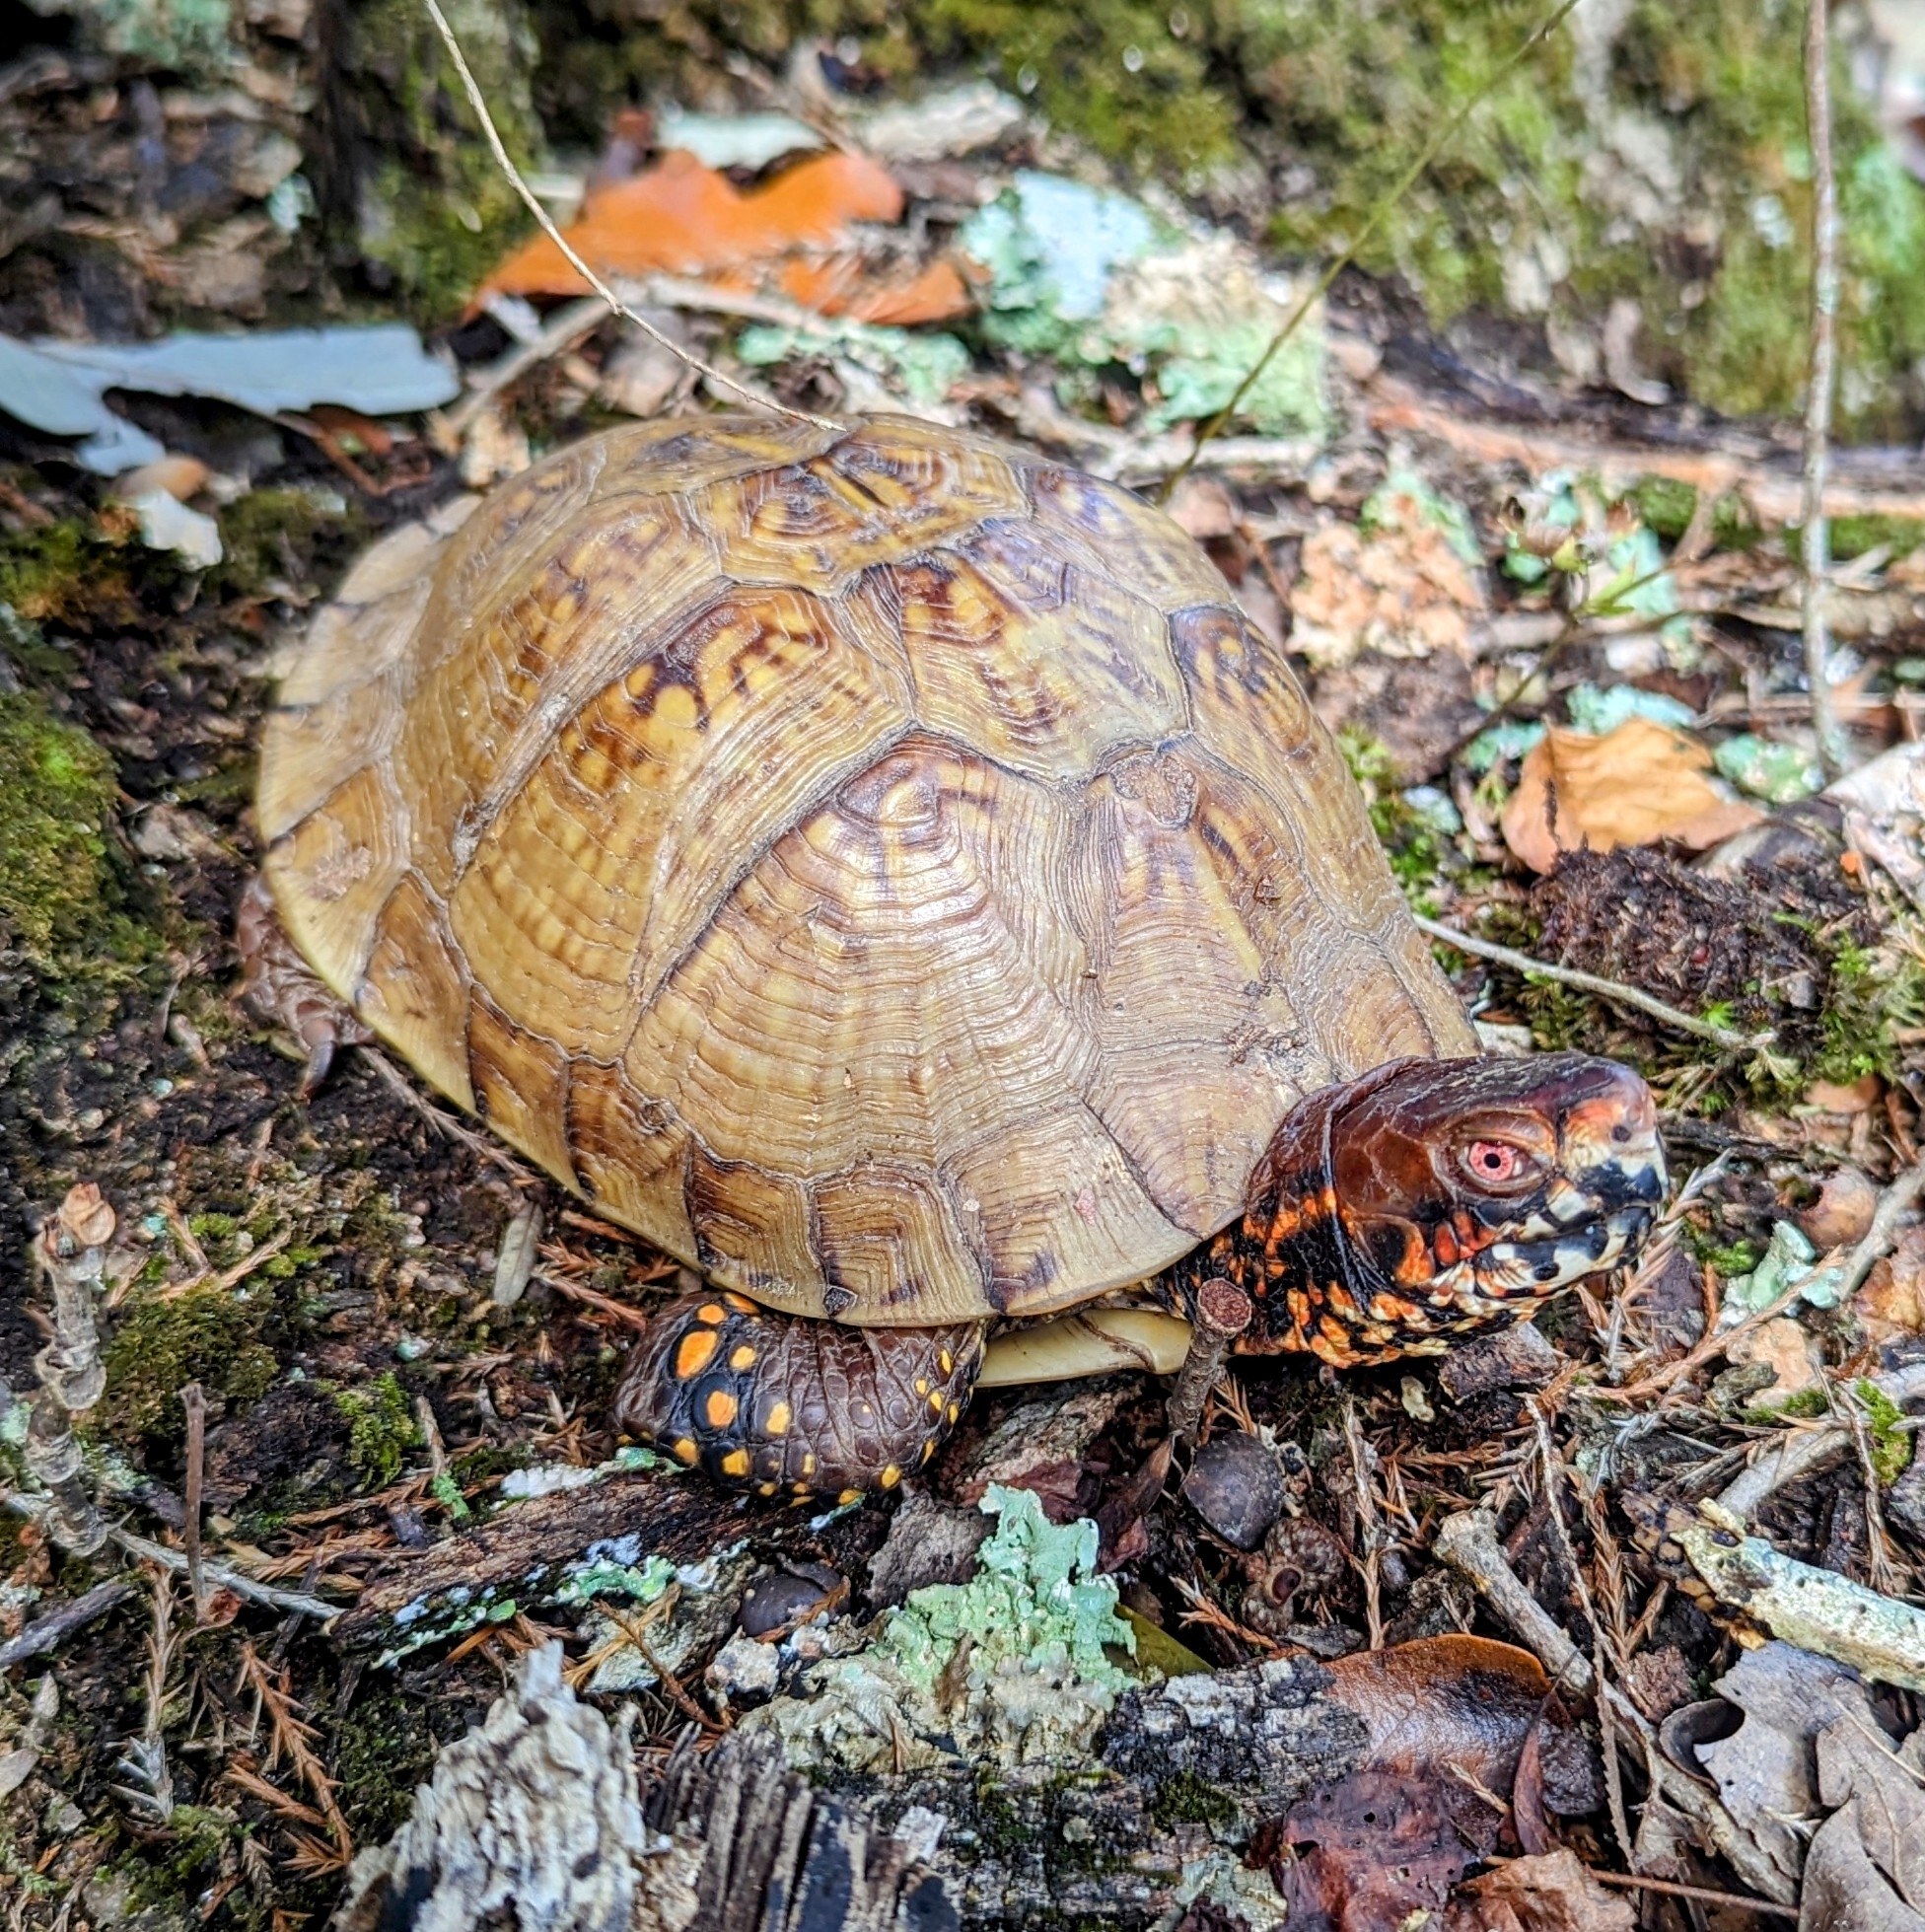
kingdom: Animalia
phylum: Chordata
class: Testudines
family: Emydidae
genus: Terrapene
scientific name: Terrapene carolina
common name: Common box turtle
